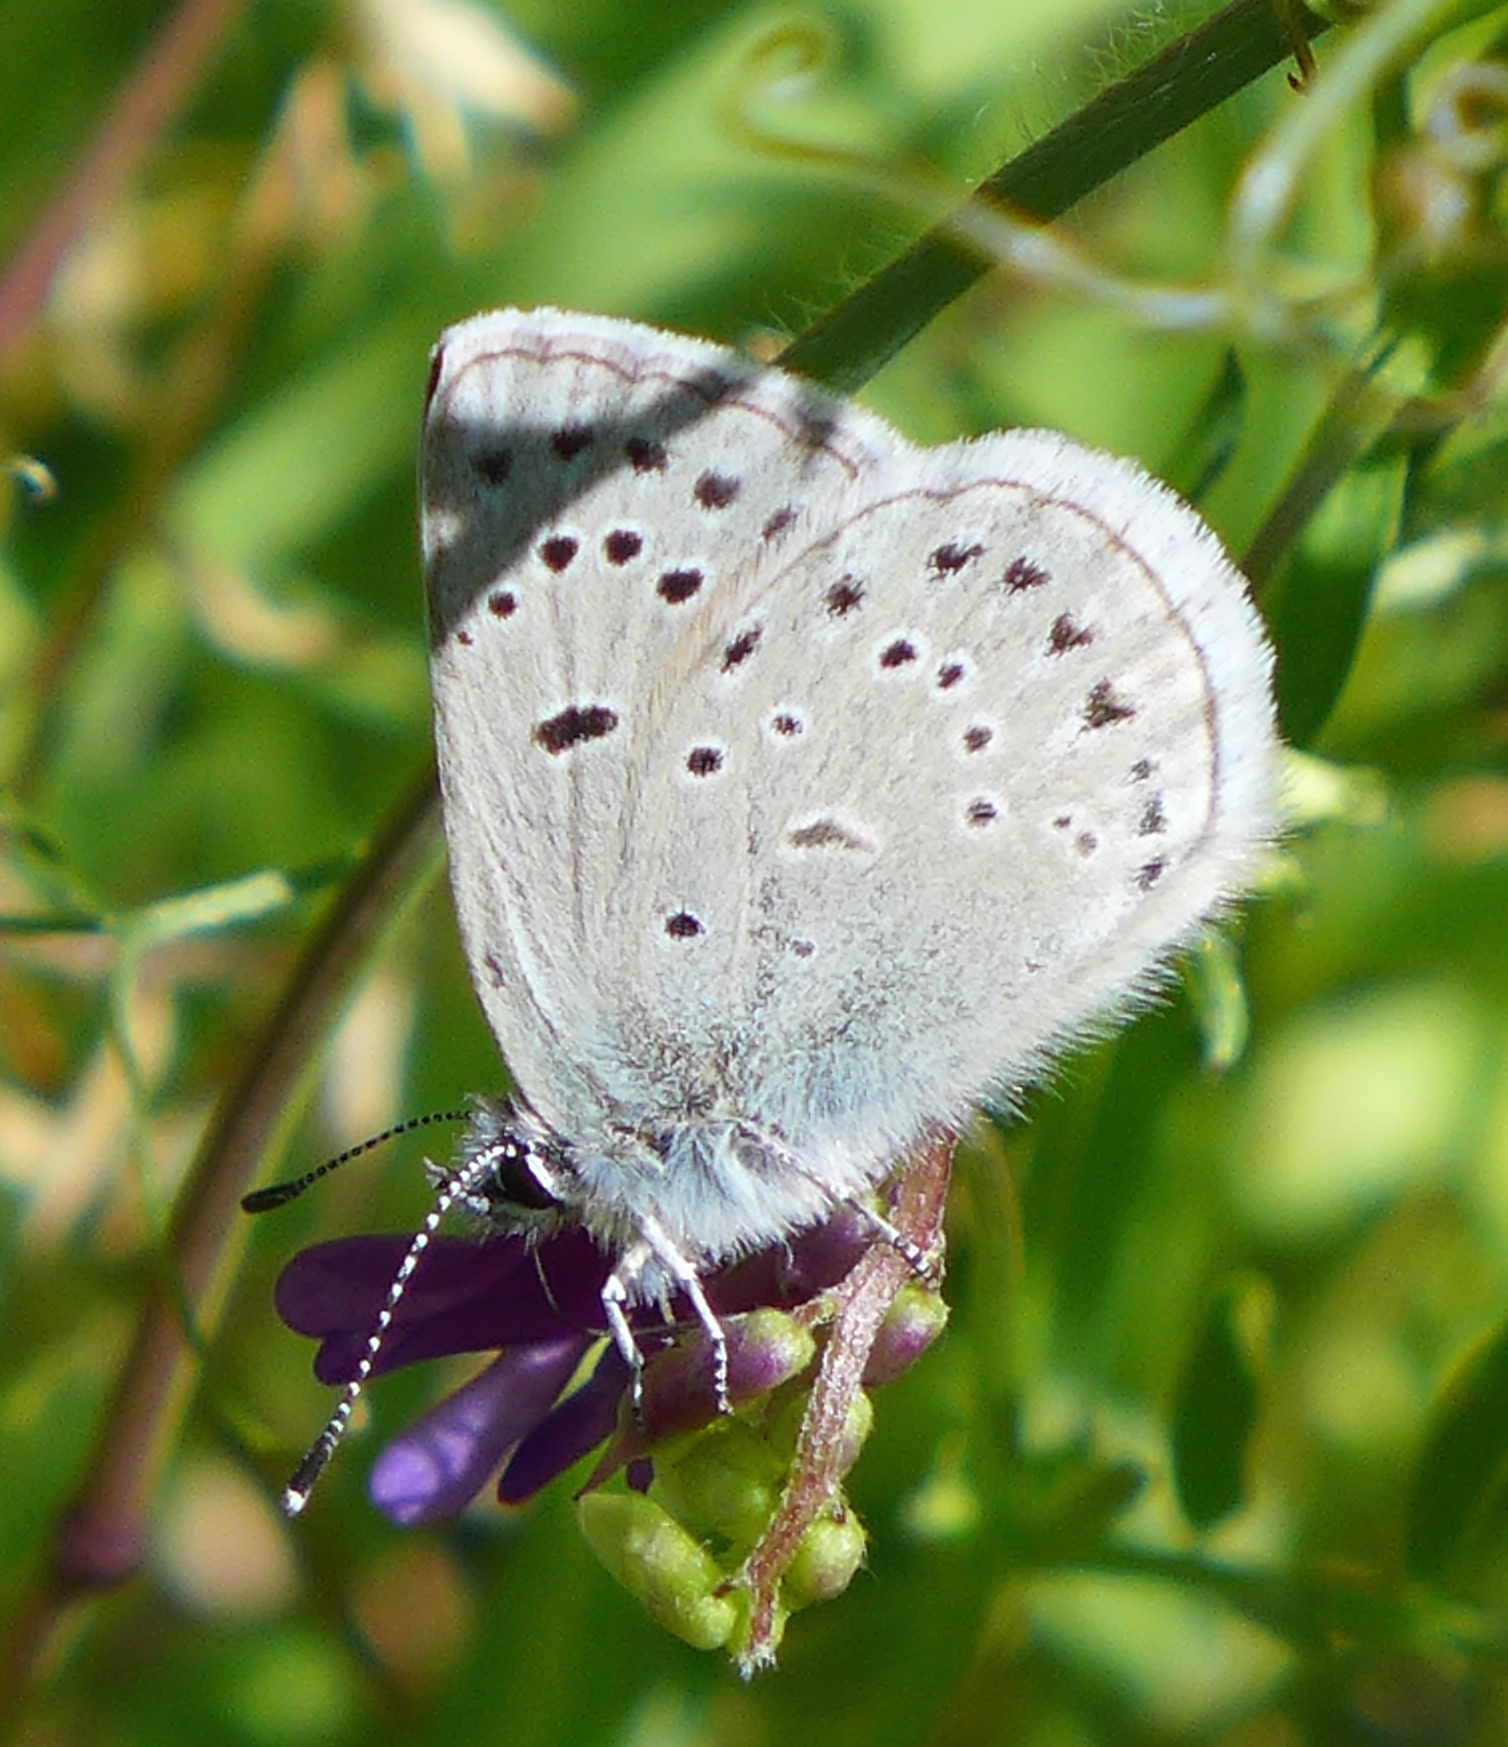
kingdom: Animalia
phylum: Arthropoda
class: Insecta
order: Lepidoptera
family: Lycaenidae
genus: Icaricia
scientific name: Icaricia icarioides
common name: Boisduval's blue
